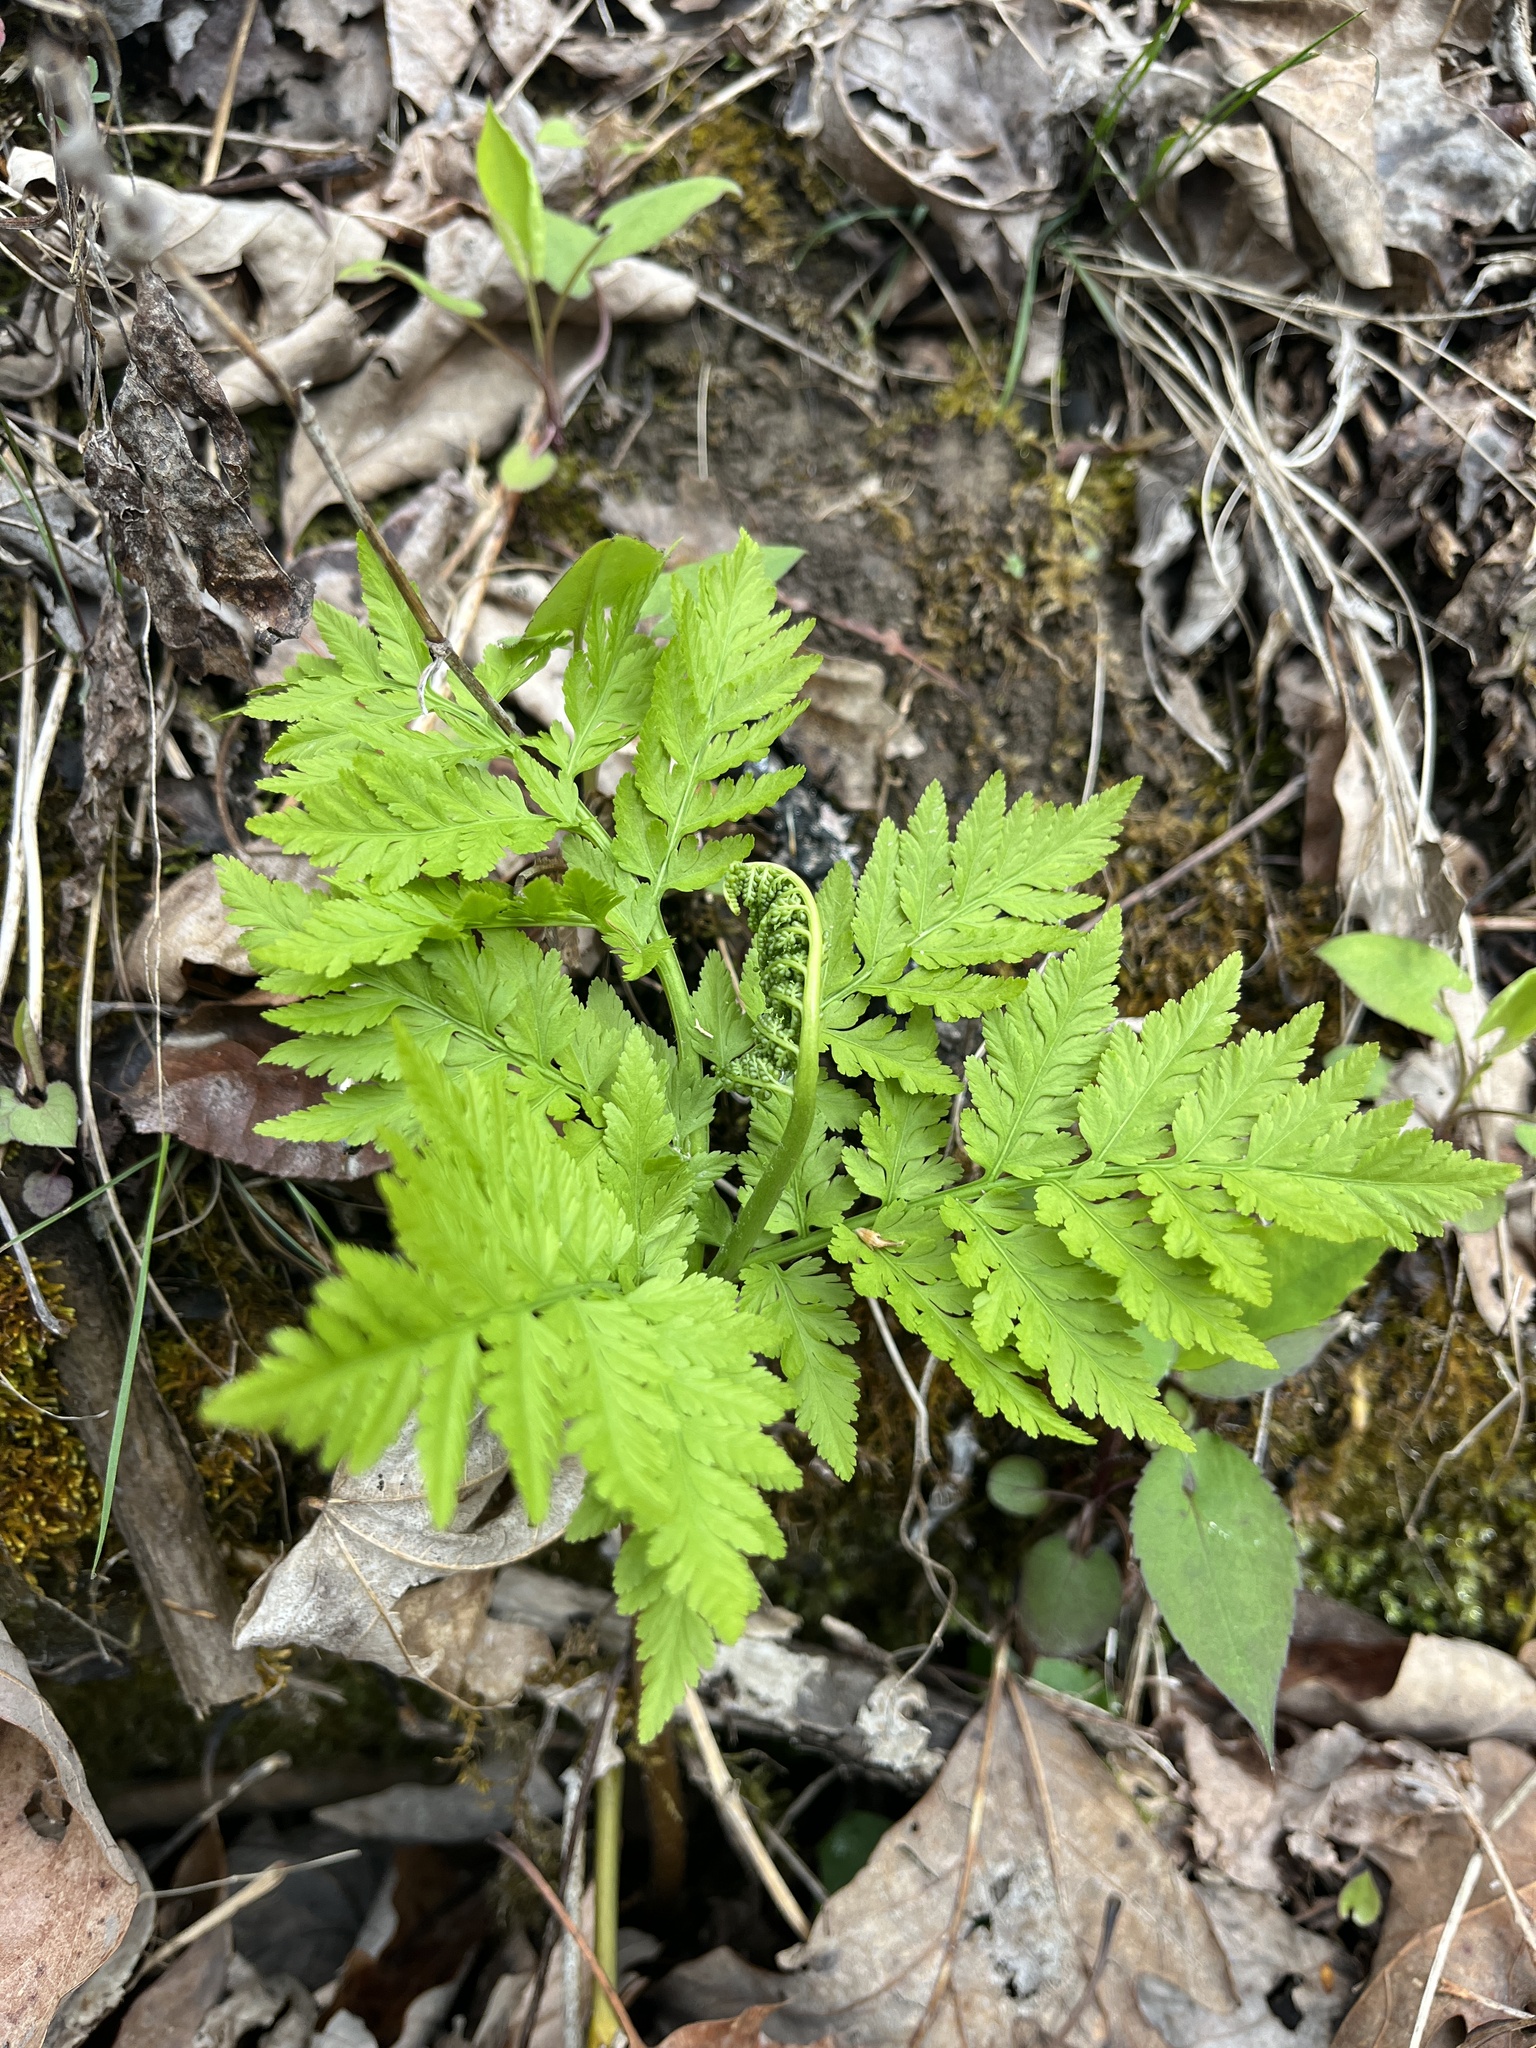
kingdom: Plantae
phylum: Tracheophyta
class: Polypodiopsida
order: Ophioglossales
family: Ophioglossaceae
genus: Botrypus
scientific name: Botrypus virginianus
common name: Common grapefern
